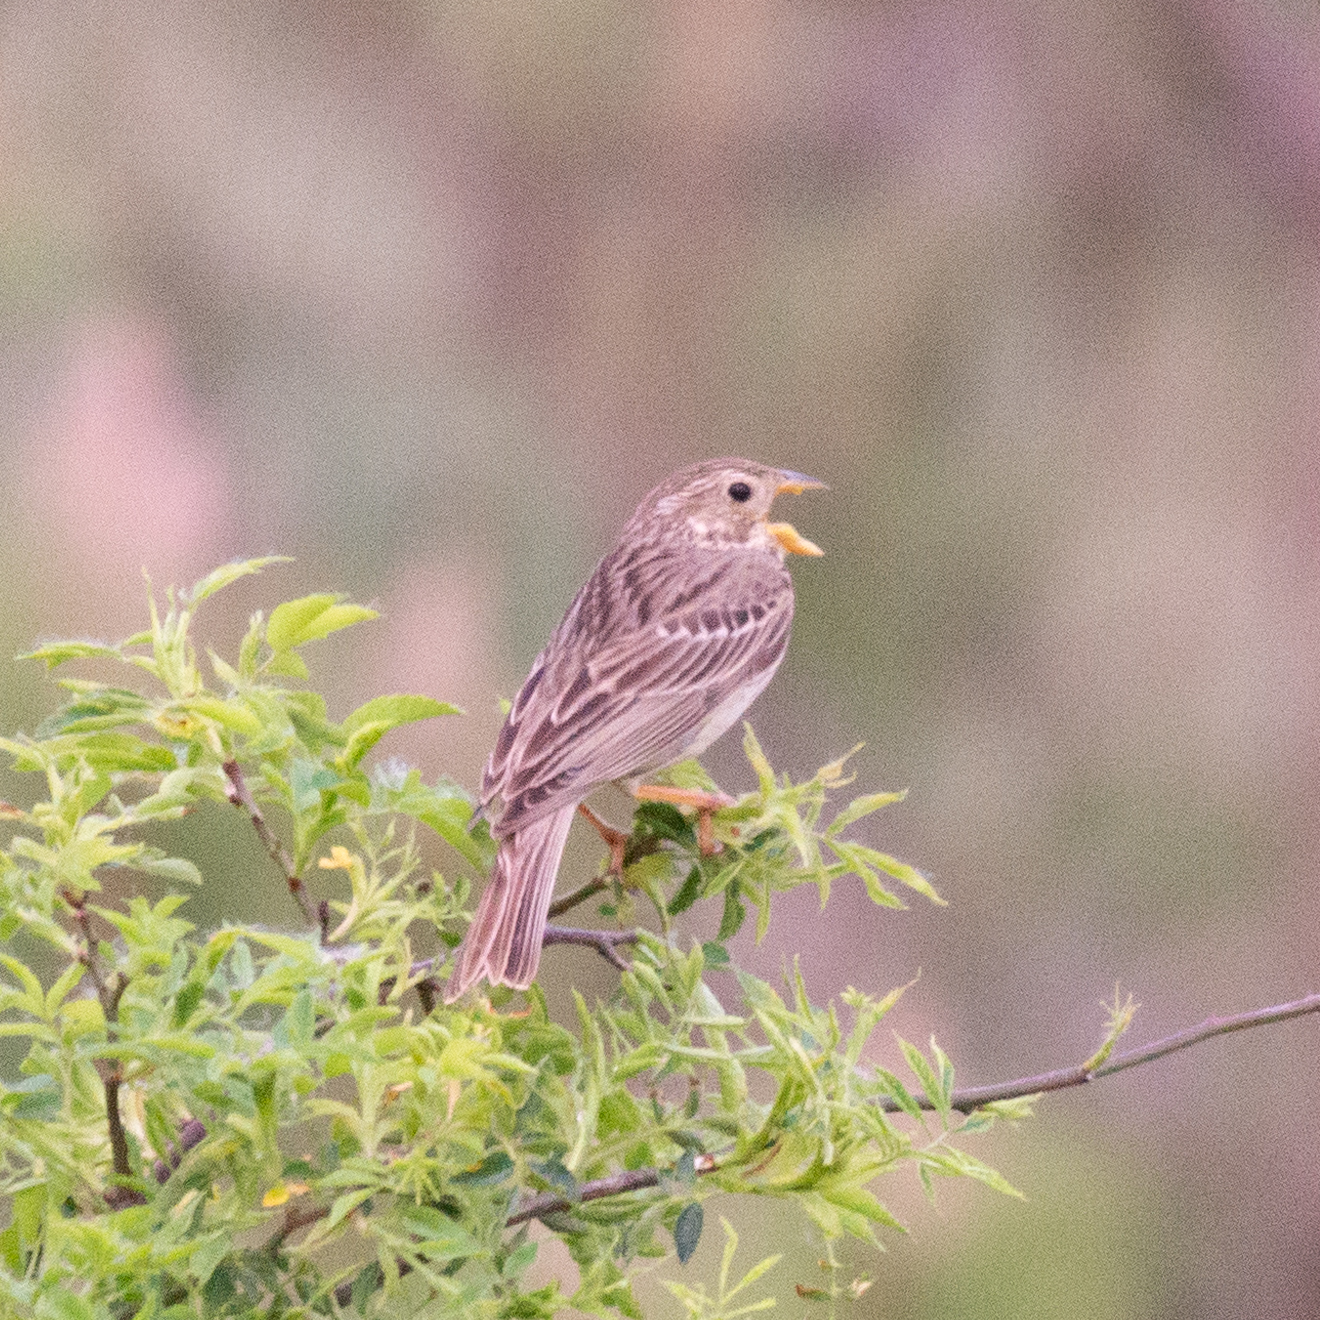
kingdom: Animalia
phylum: Chordata
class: Aves
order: Passeriformes
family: Emberizidae
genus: Emberiza
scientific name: Emberiza calandra
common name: Corn bunting
